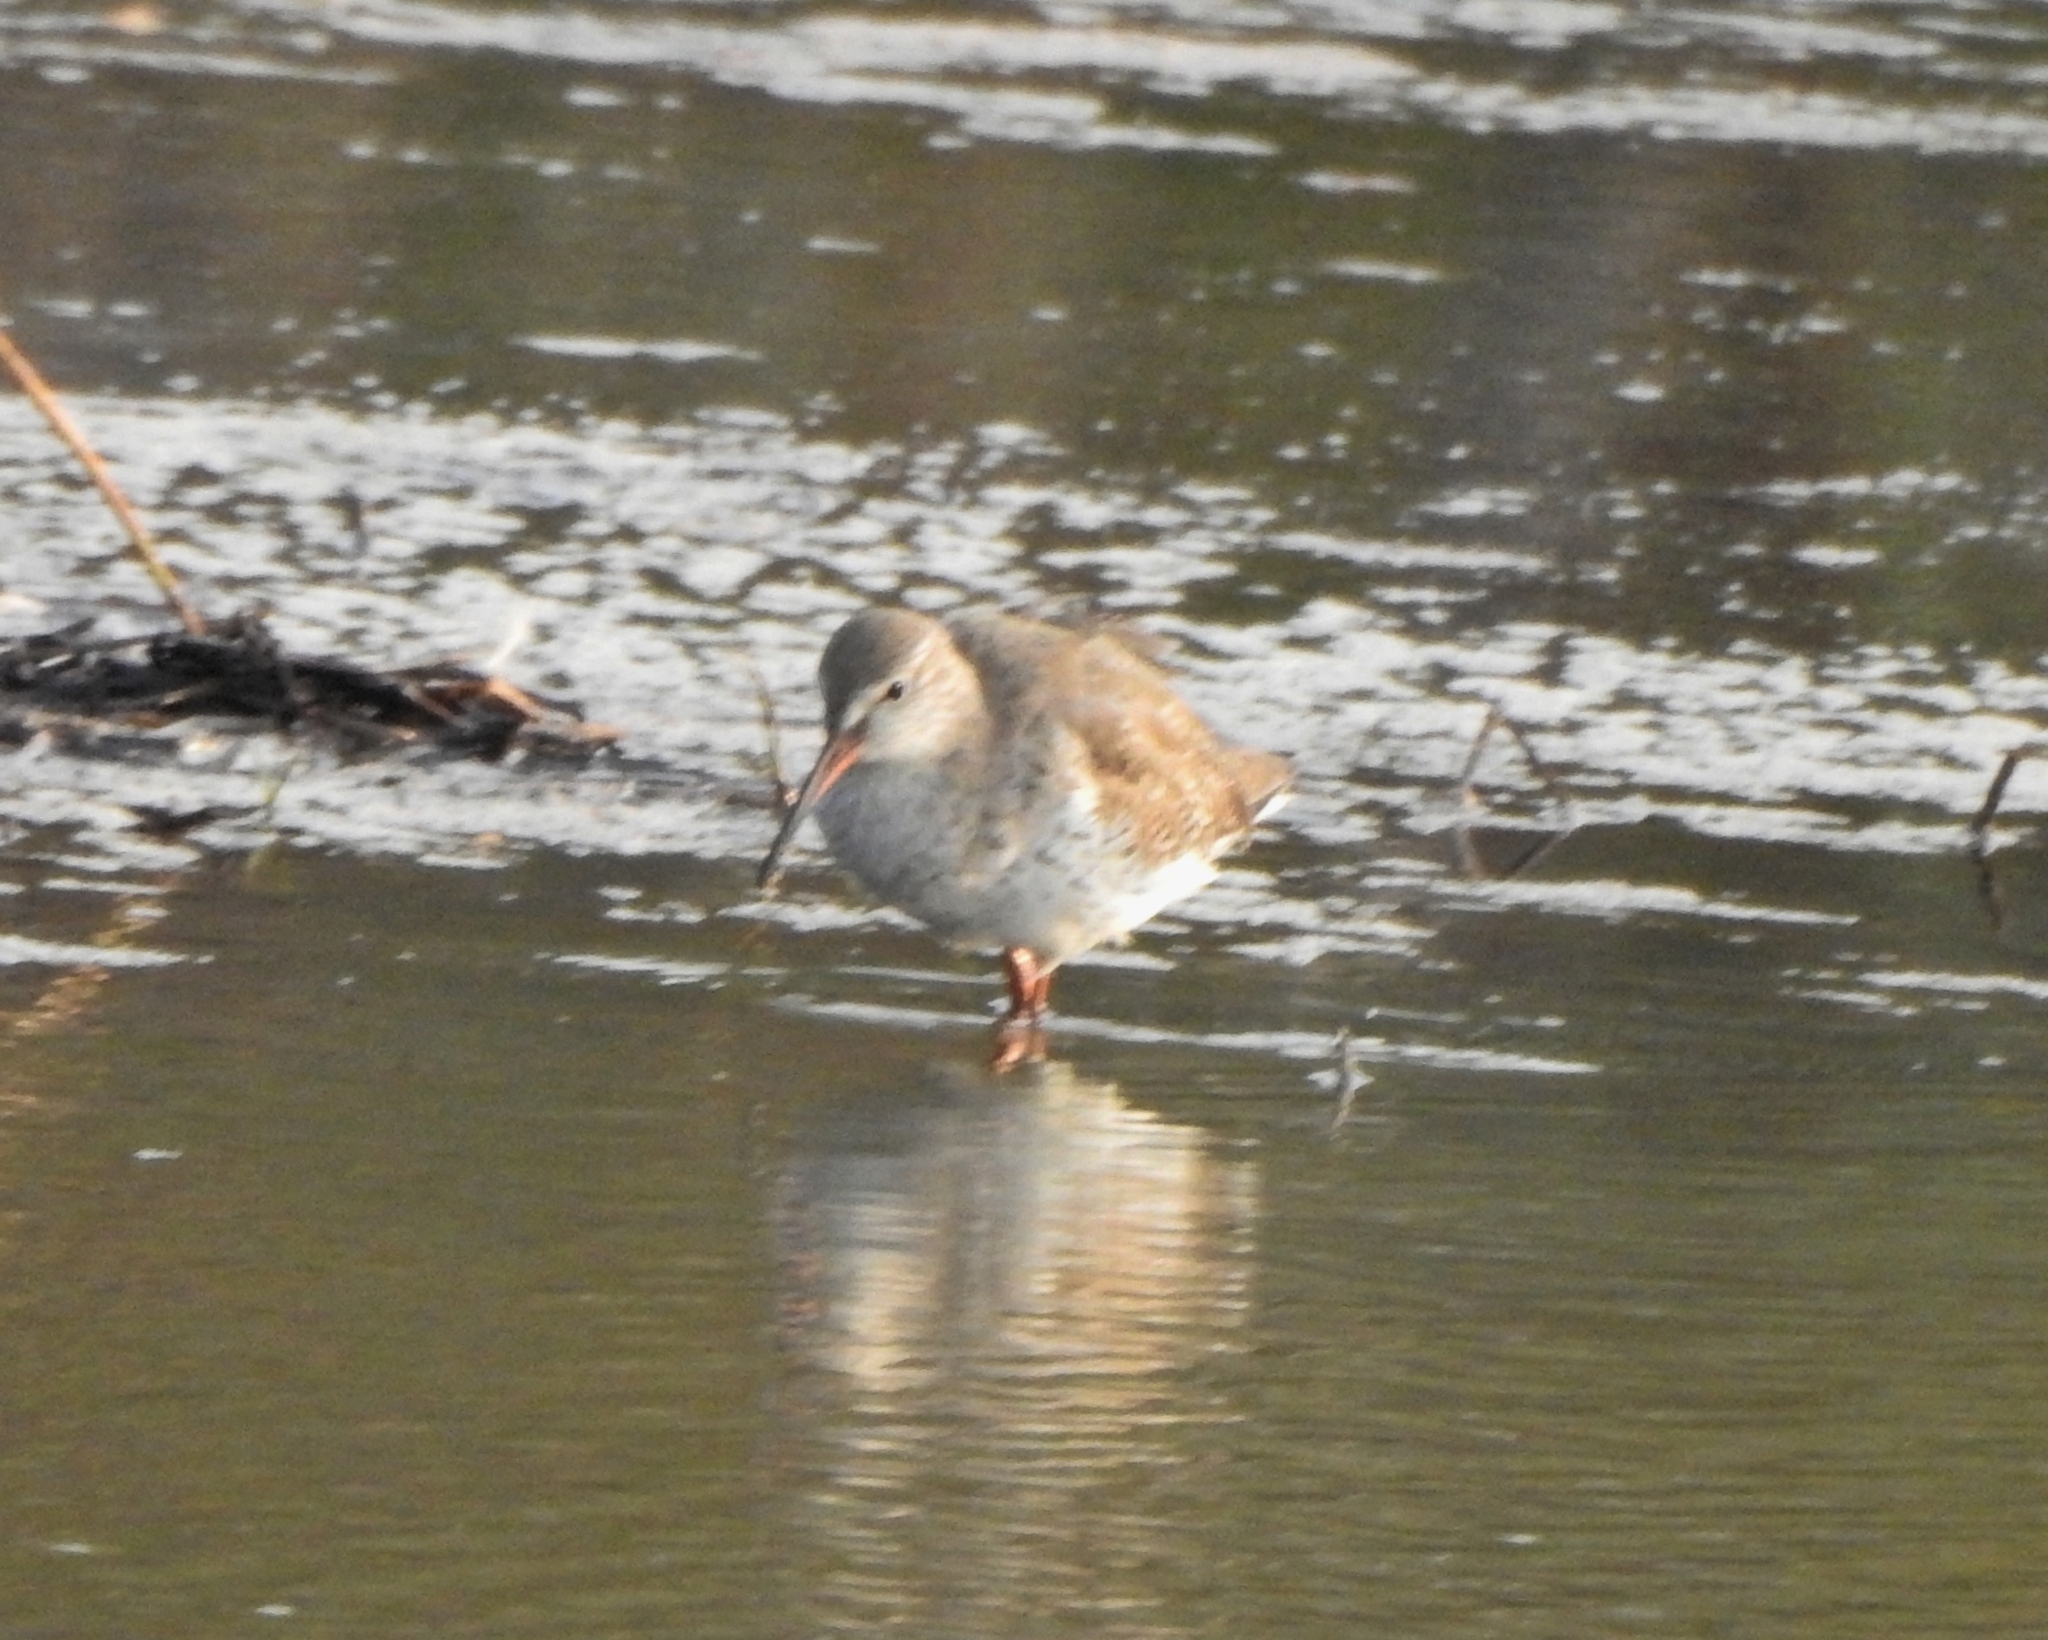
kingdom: Animalia
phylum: Chordata
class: Aves
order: Charadriiformes
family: Scolopacidae
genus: Tringa
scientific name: Tringa totanus
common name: Common redshank
